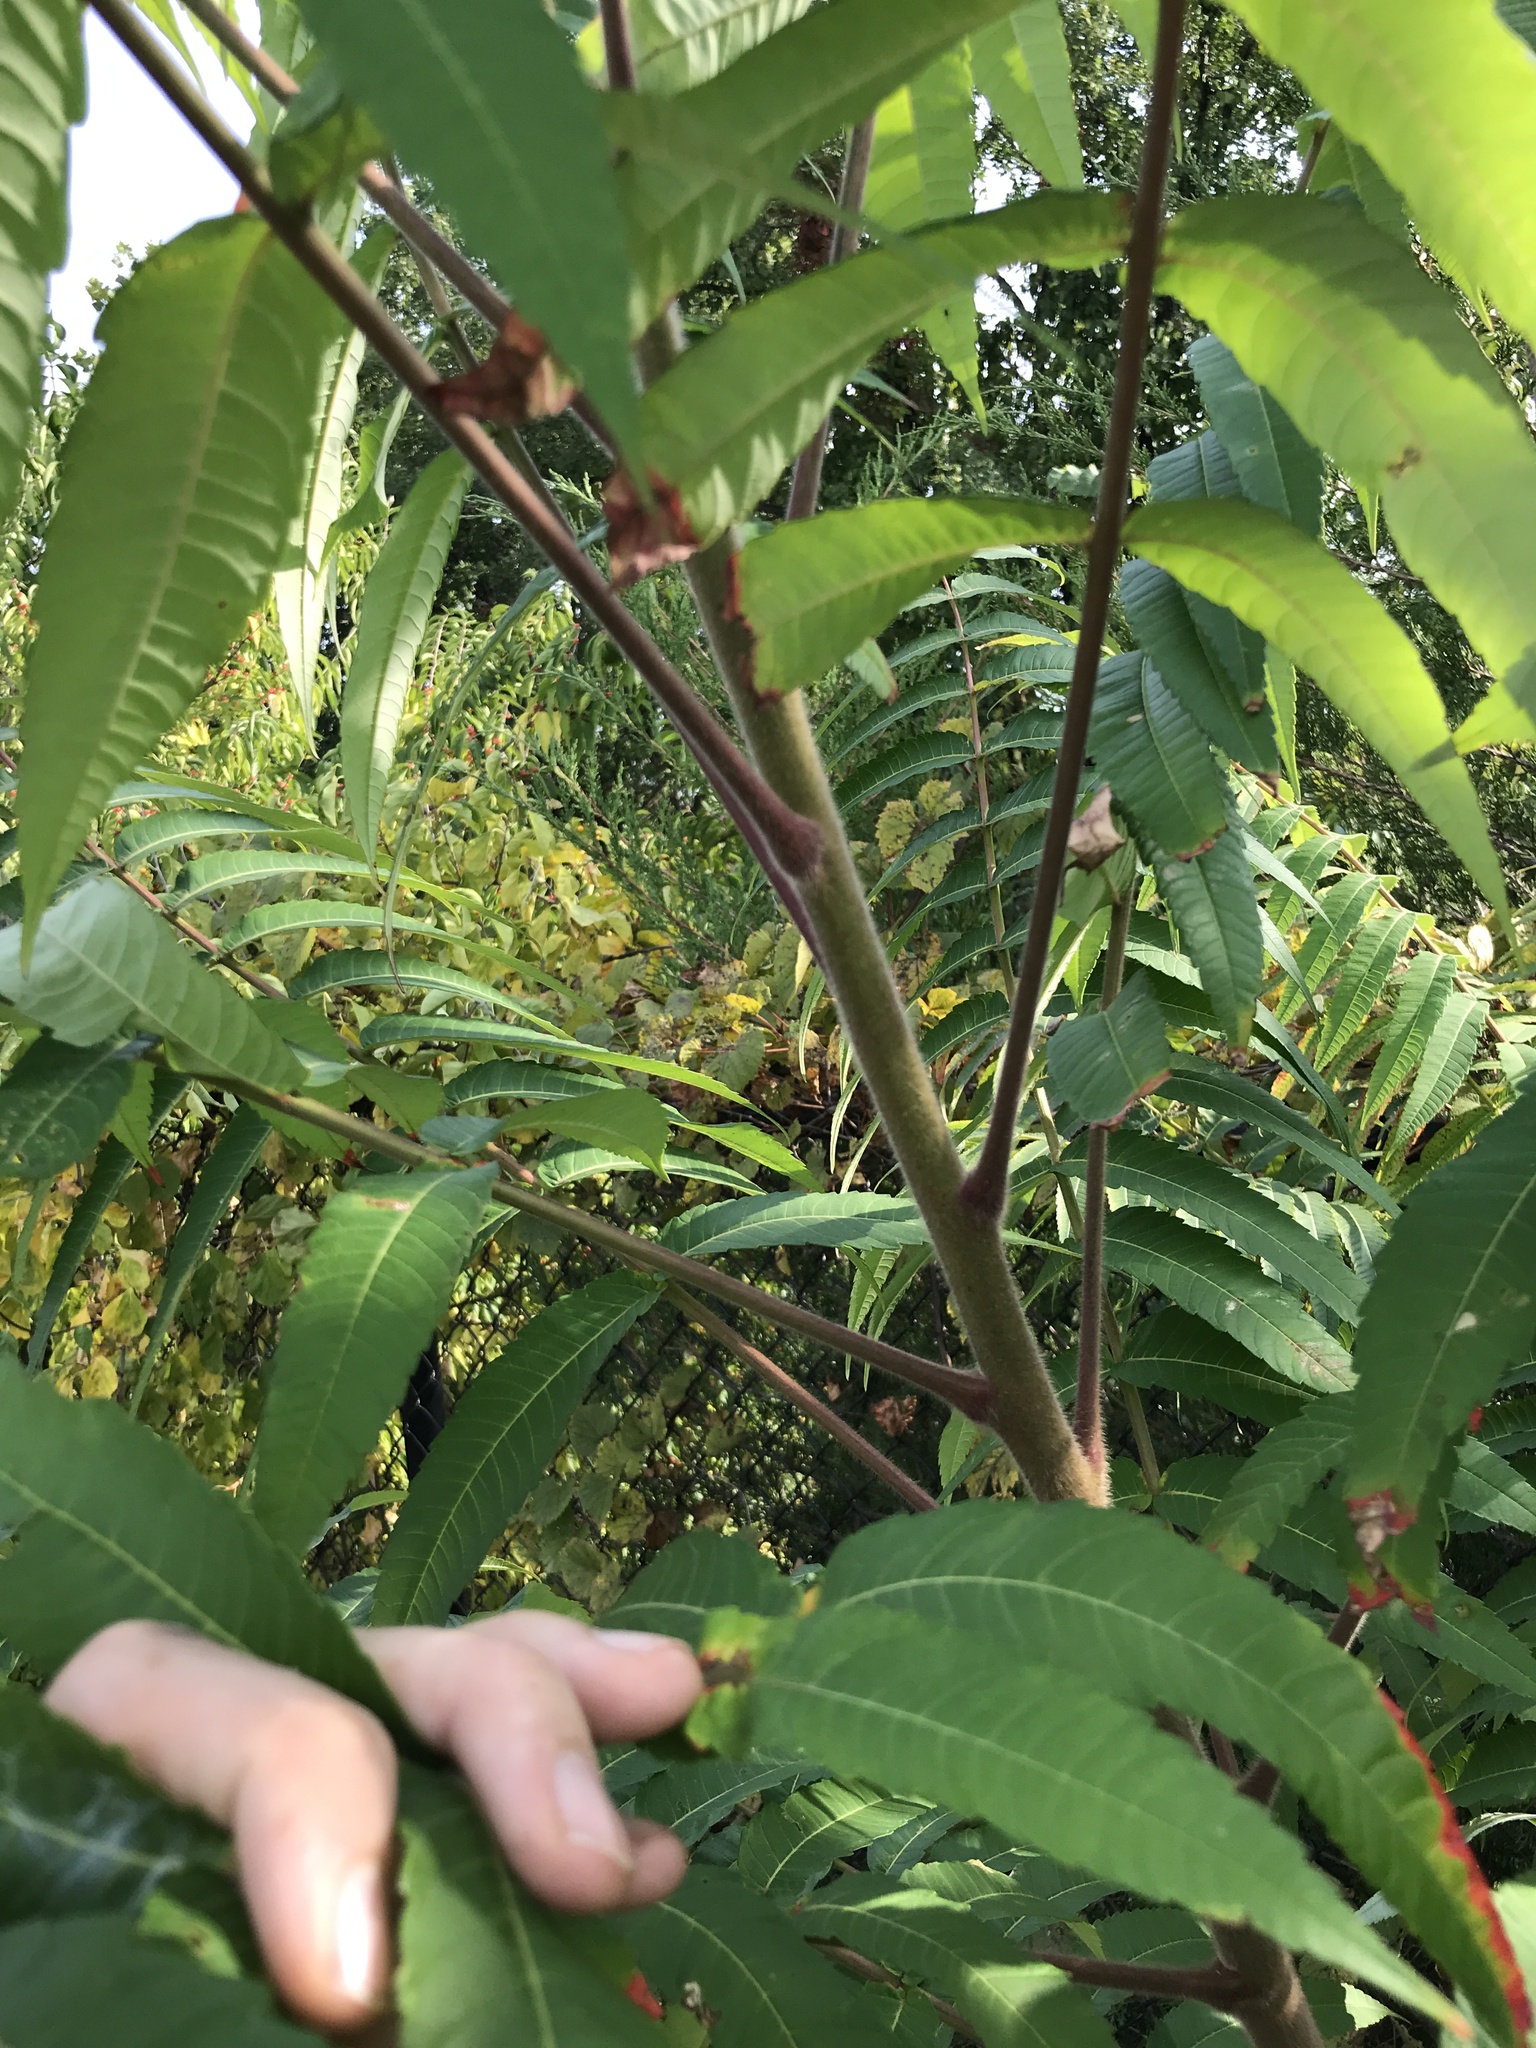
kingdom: Plantae
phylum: Tracheophyta
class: Magnoliopsida
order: Sapindales
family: Anacardiaceae
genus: Rhus
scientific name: Rhus typhina
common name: Staghorn sumac
